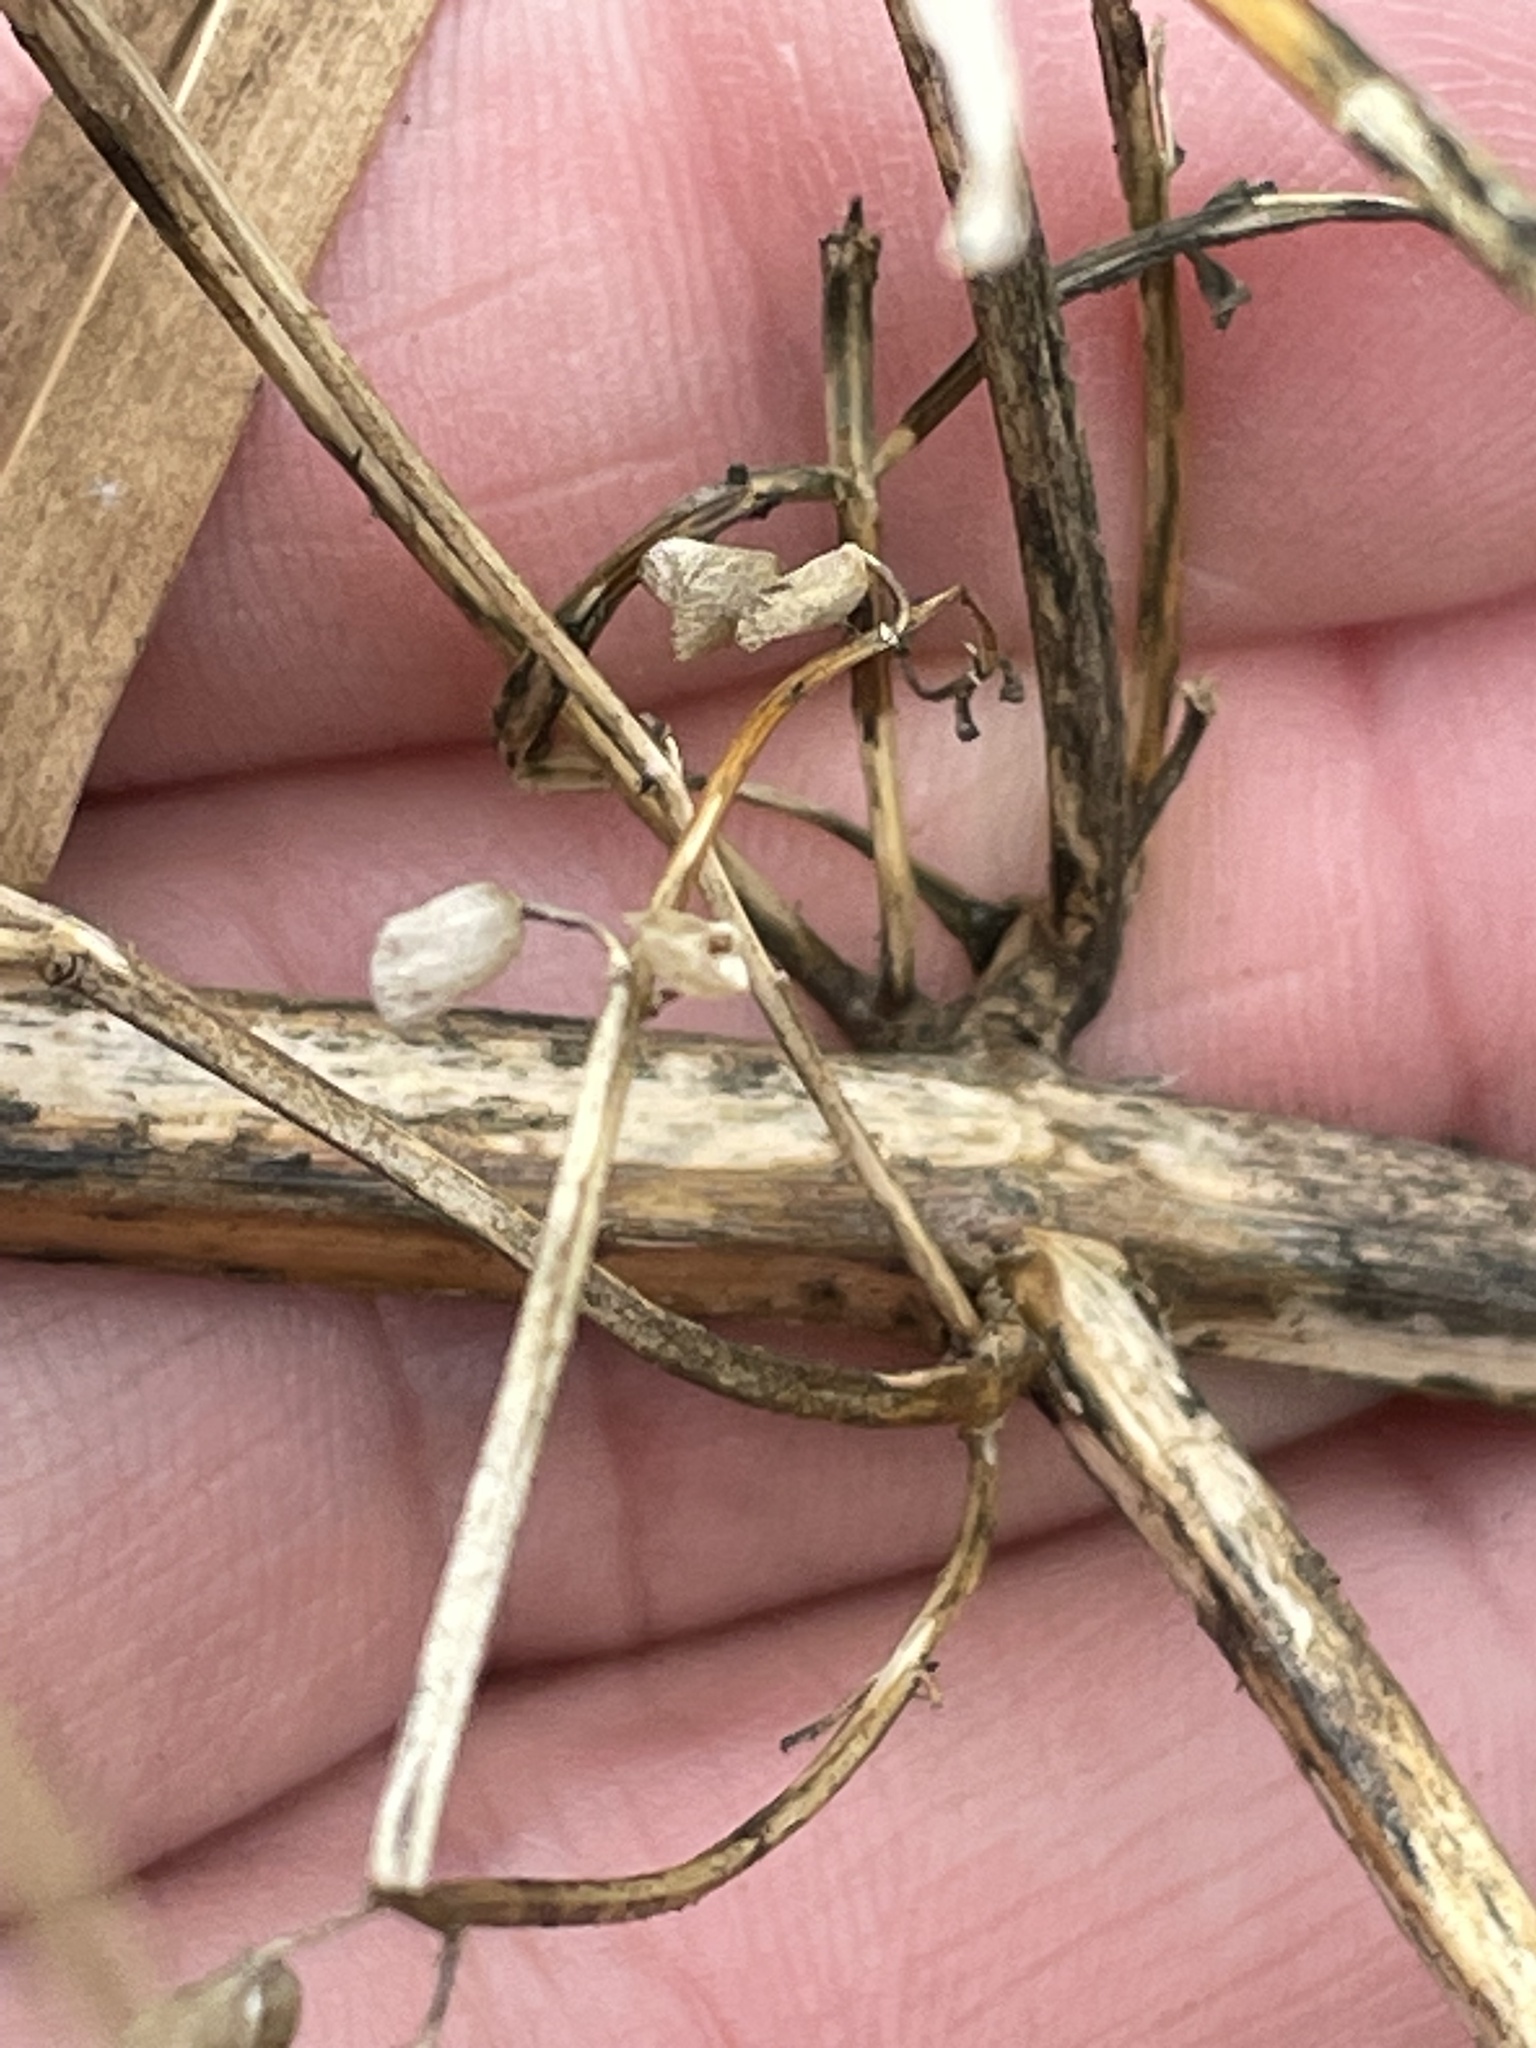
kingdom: Plantae
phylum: Tracheophyta
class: Magnoliopsida
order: Lamiales
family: Lamiaceae
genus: Perilla
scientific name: Perilla frutescens
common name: Perilla
